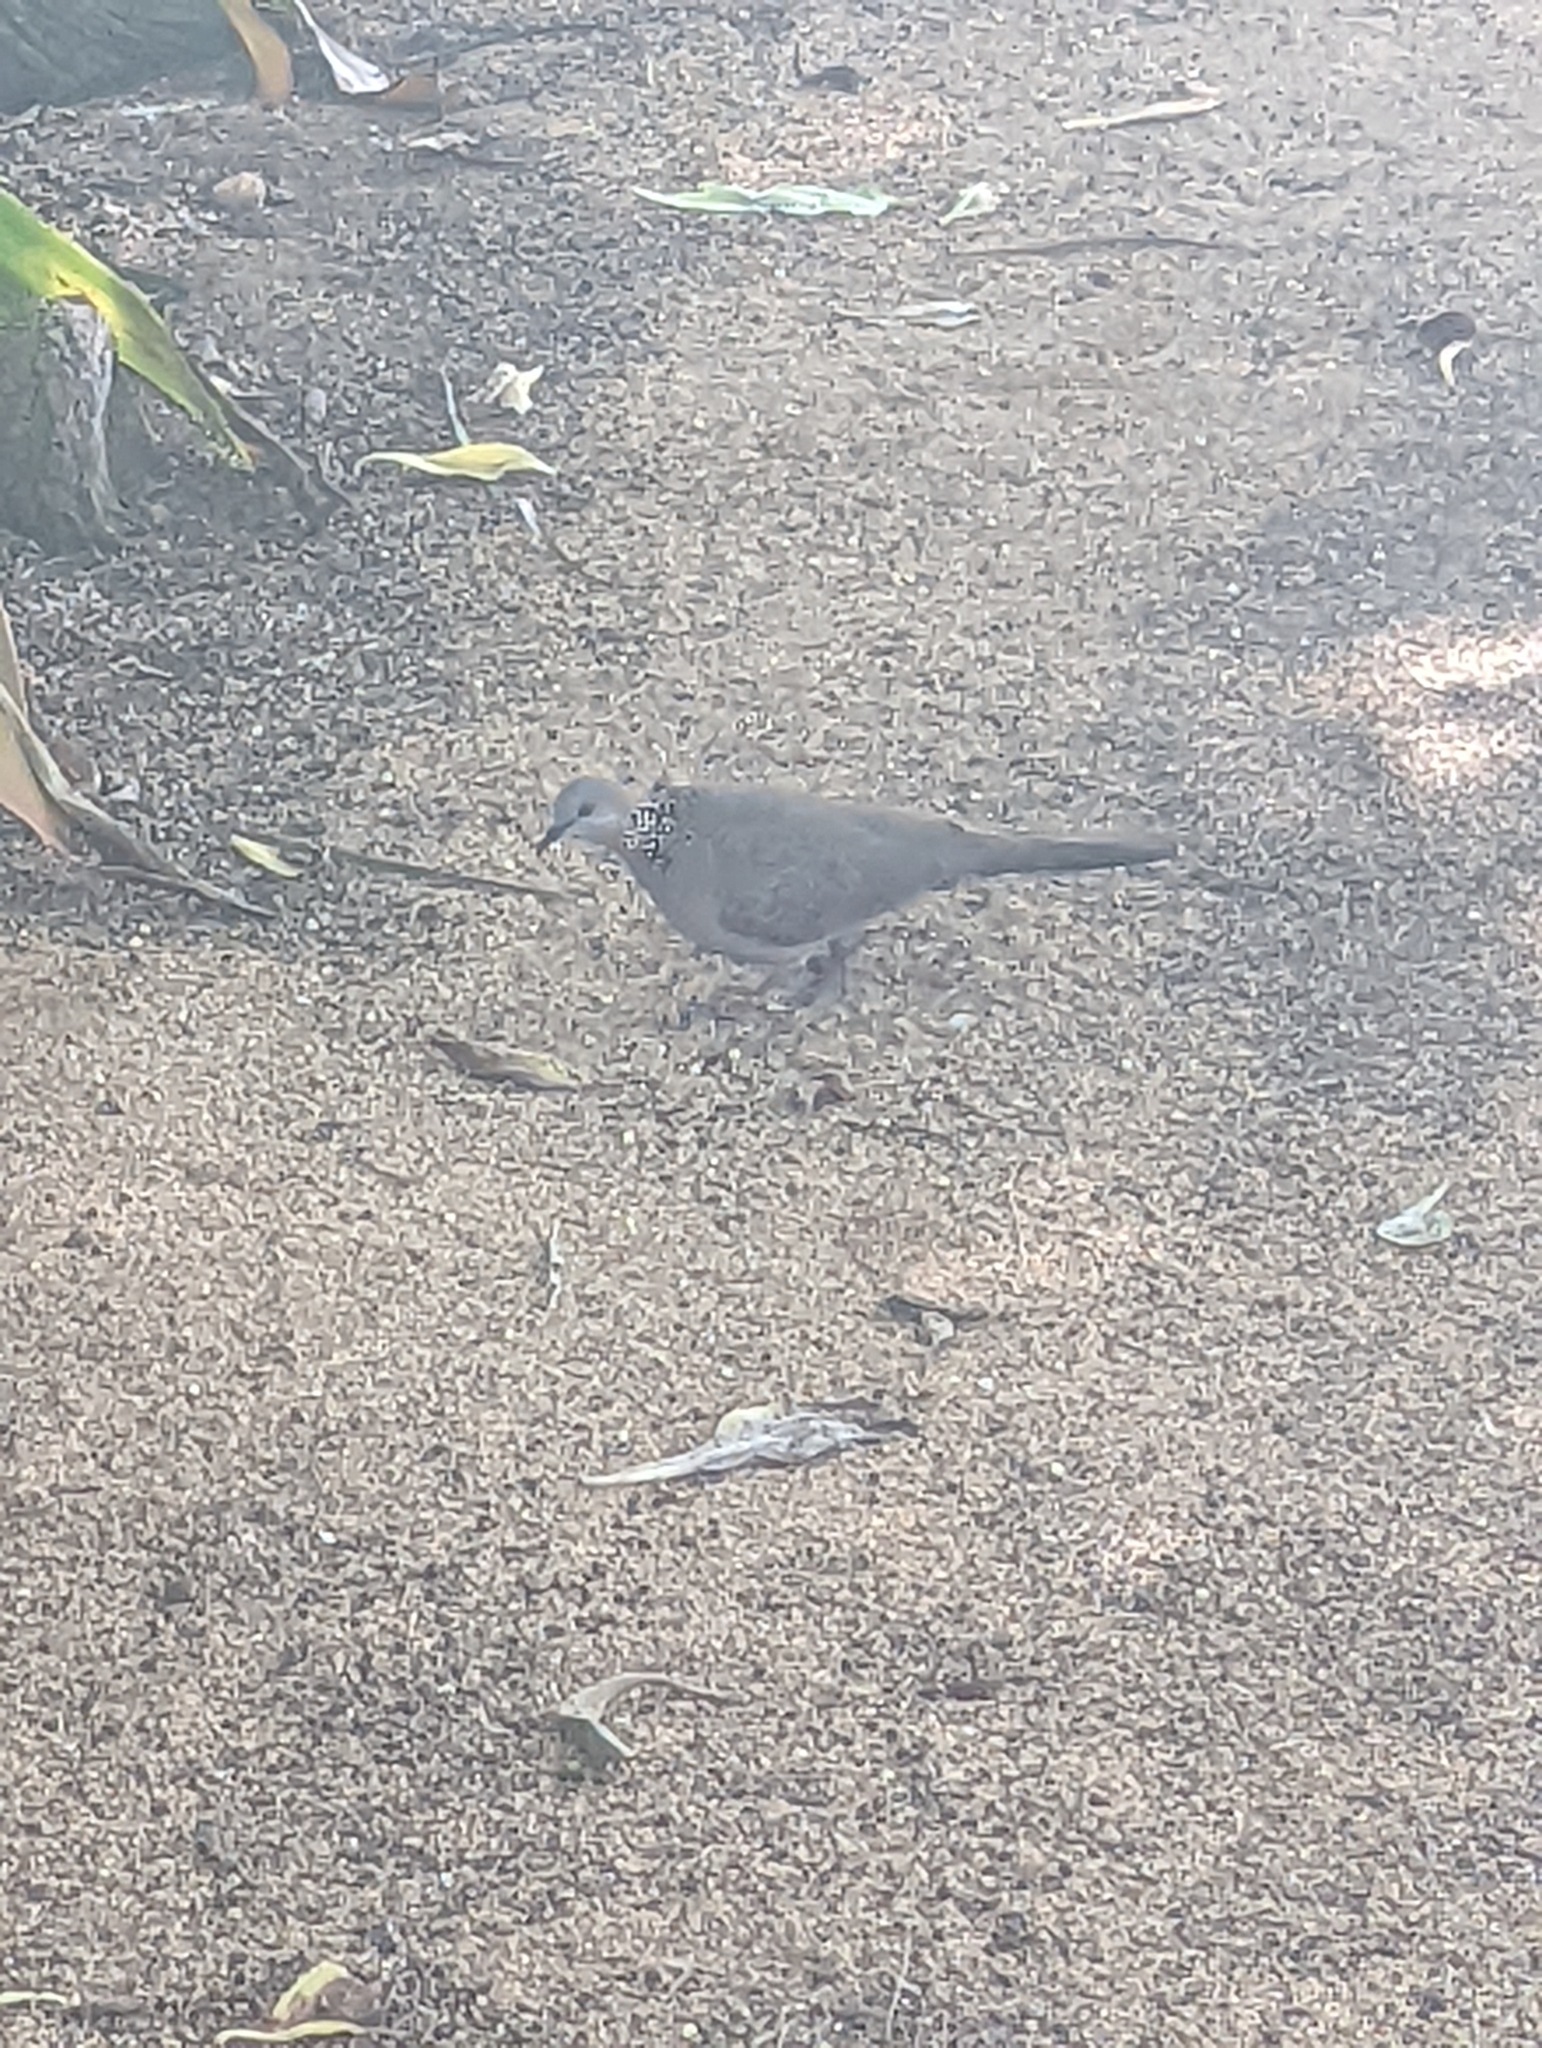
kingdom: Animalia
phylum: Chordata
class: Aves
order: Columbiformes
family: Columbidae
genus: Spilopelia
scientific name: Spilopelia chinensis
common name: Spotted dove
